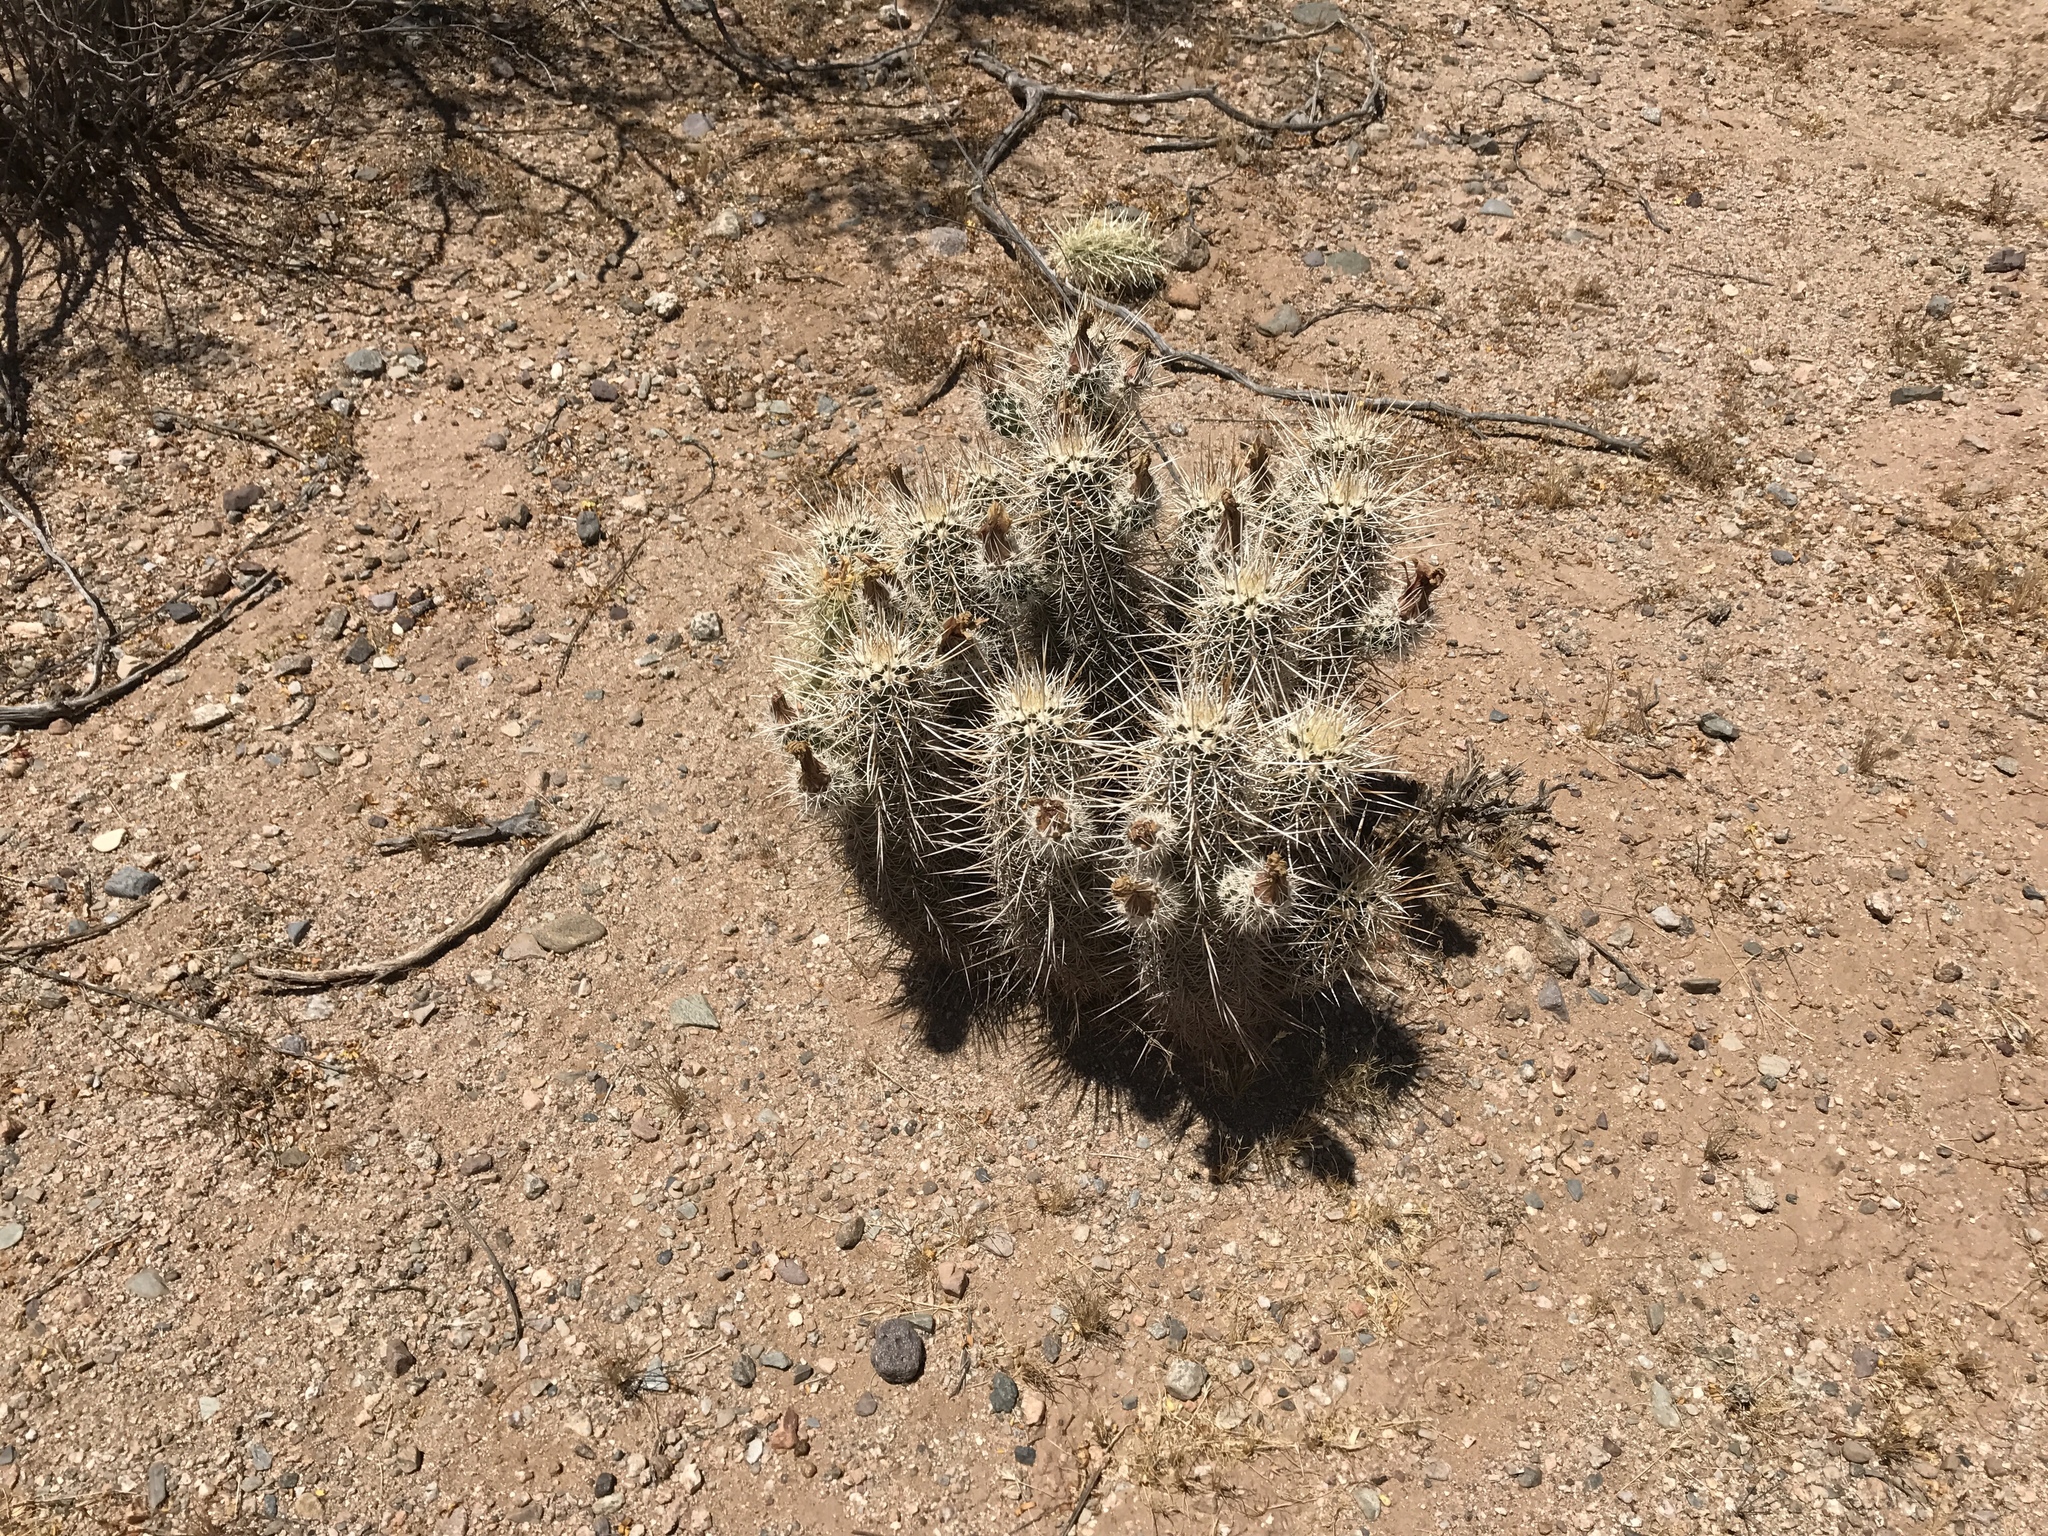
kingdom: Plantae
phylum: Tracheophyta
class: Magnoliopsida
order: Caryophyllales
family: Cactaceae
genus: Echinocereus
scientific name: Echinocereus engelmannii
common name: Engelmann's hedgehog cactus
